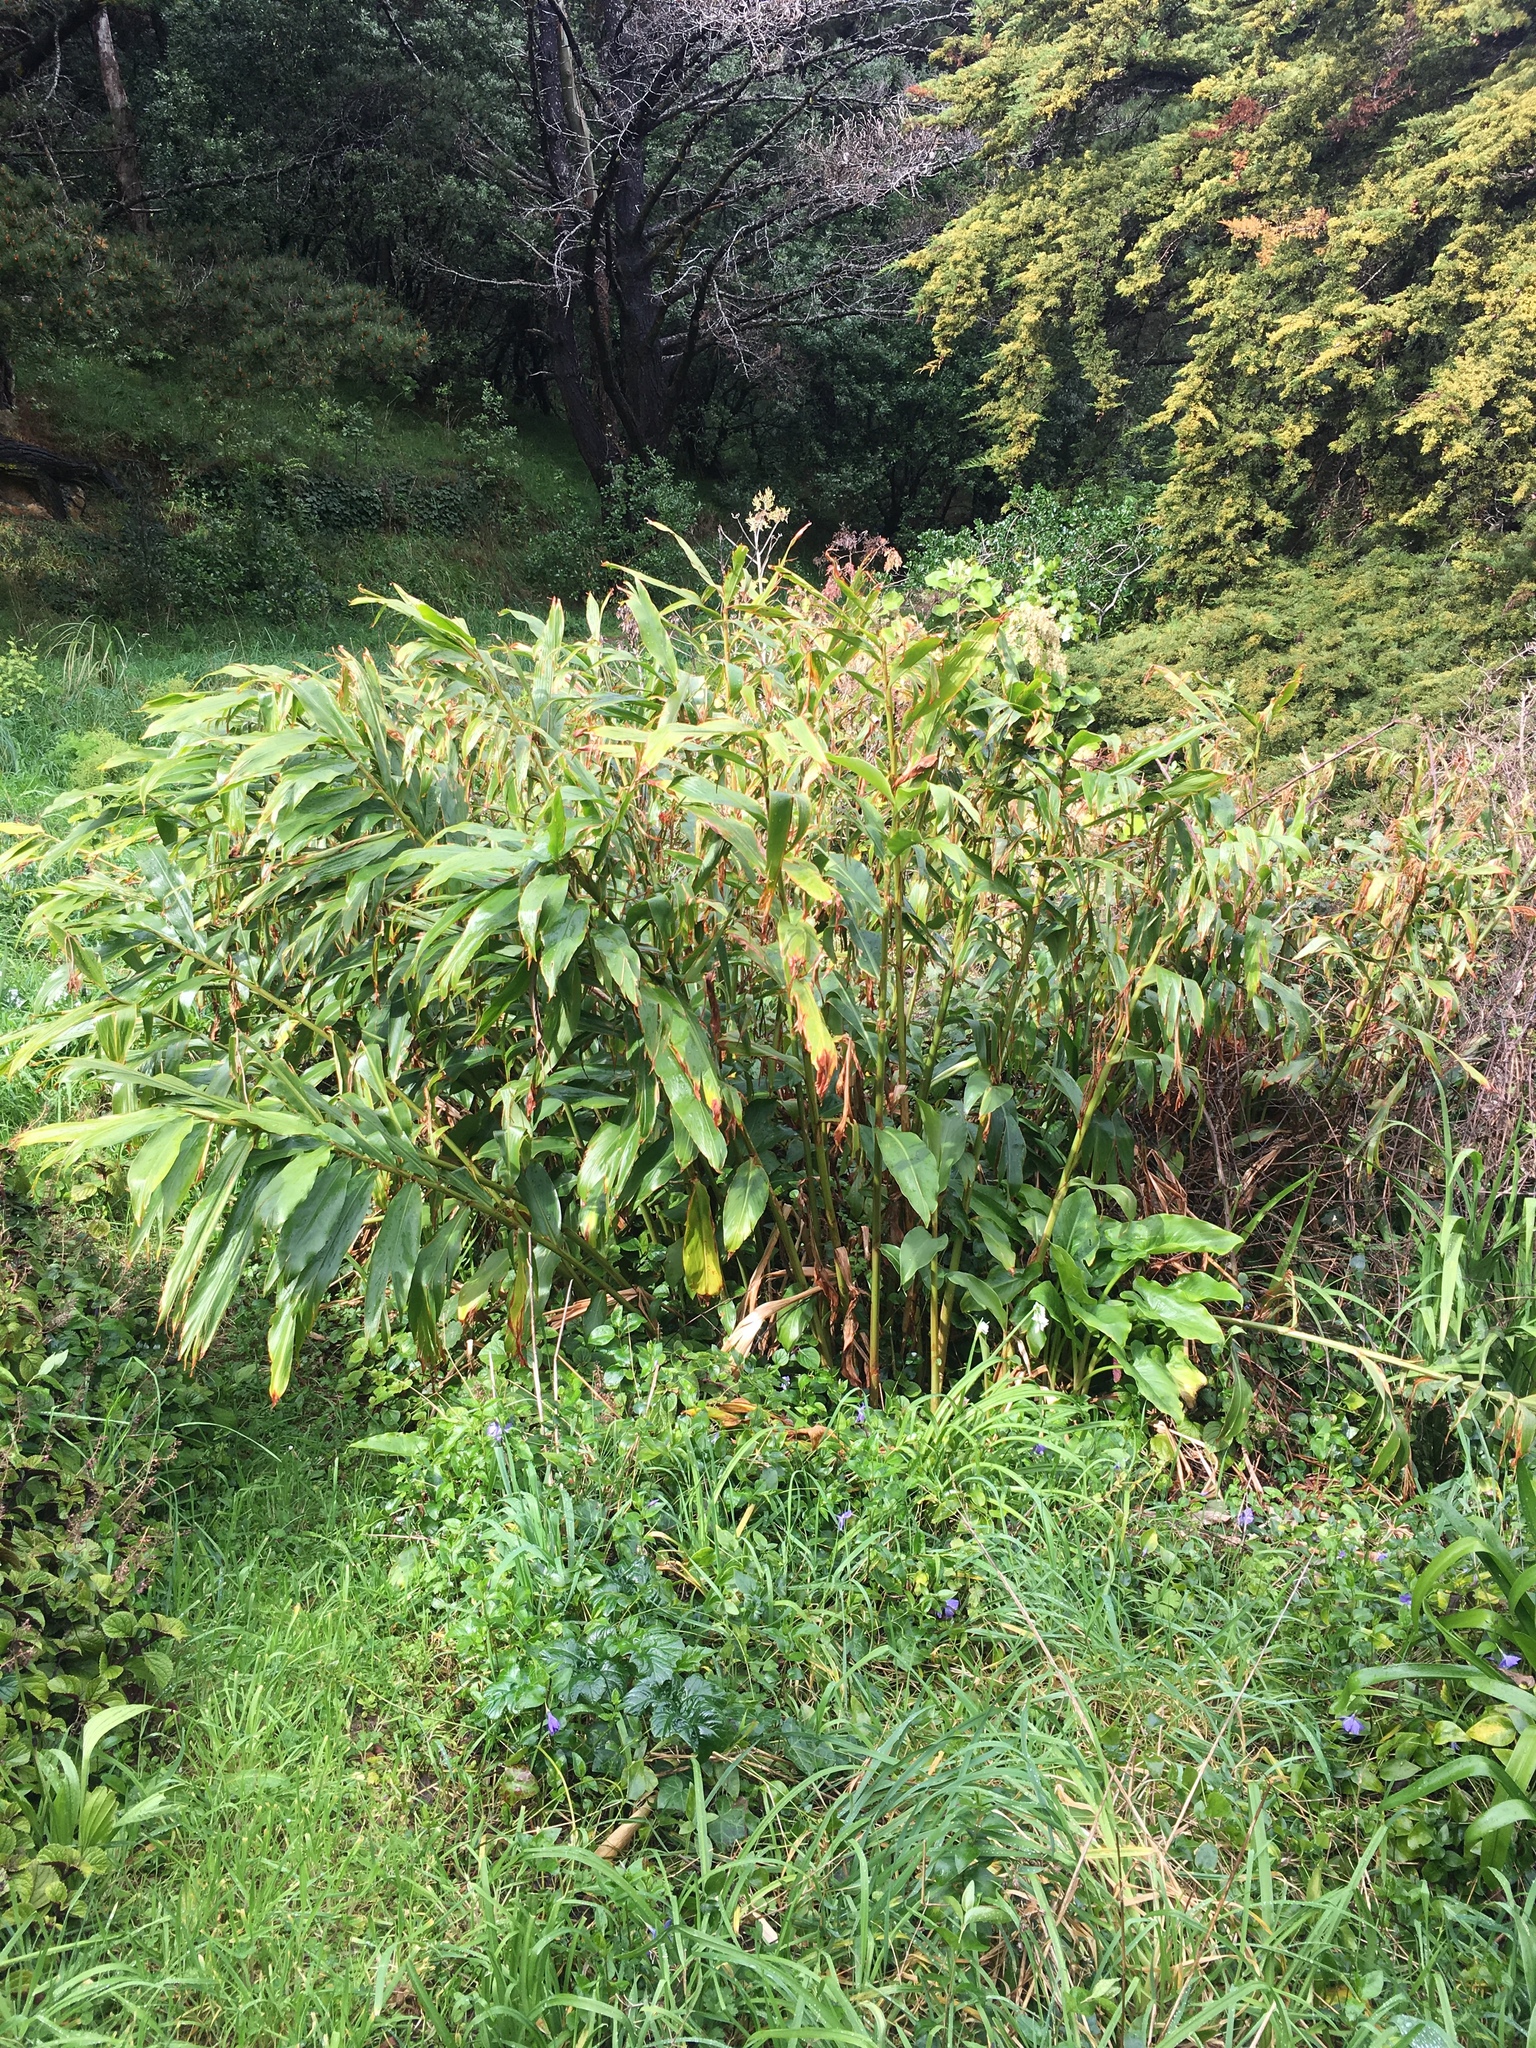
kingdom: Plantae
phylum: Tracheophyta
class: Liliopsida
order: Zingiberales
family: Zingiberaceae
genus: Hedychium
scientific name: Hedychium gardnerianum
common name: Himalayan ginger
